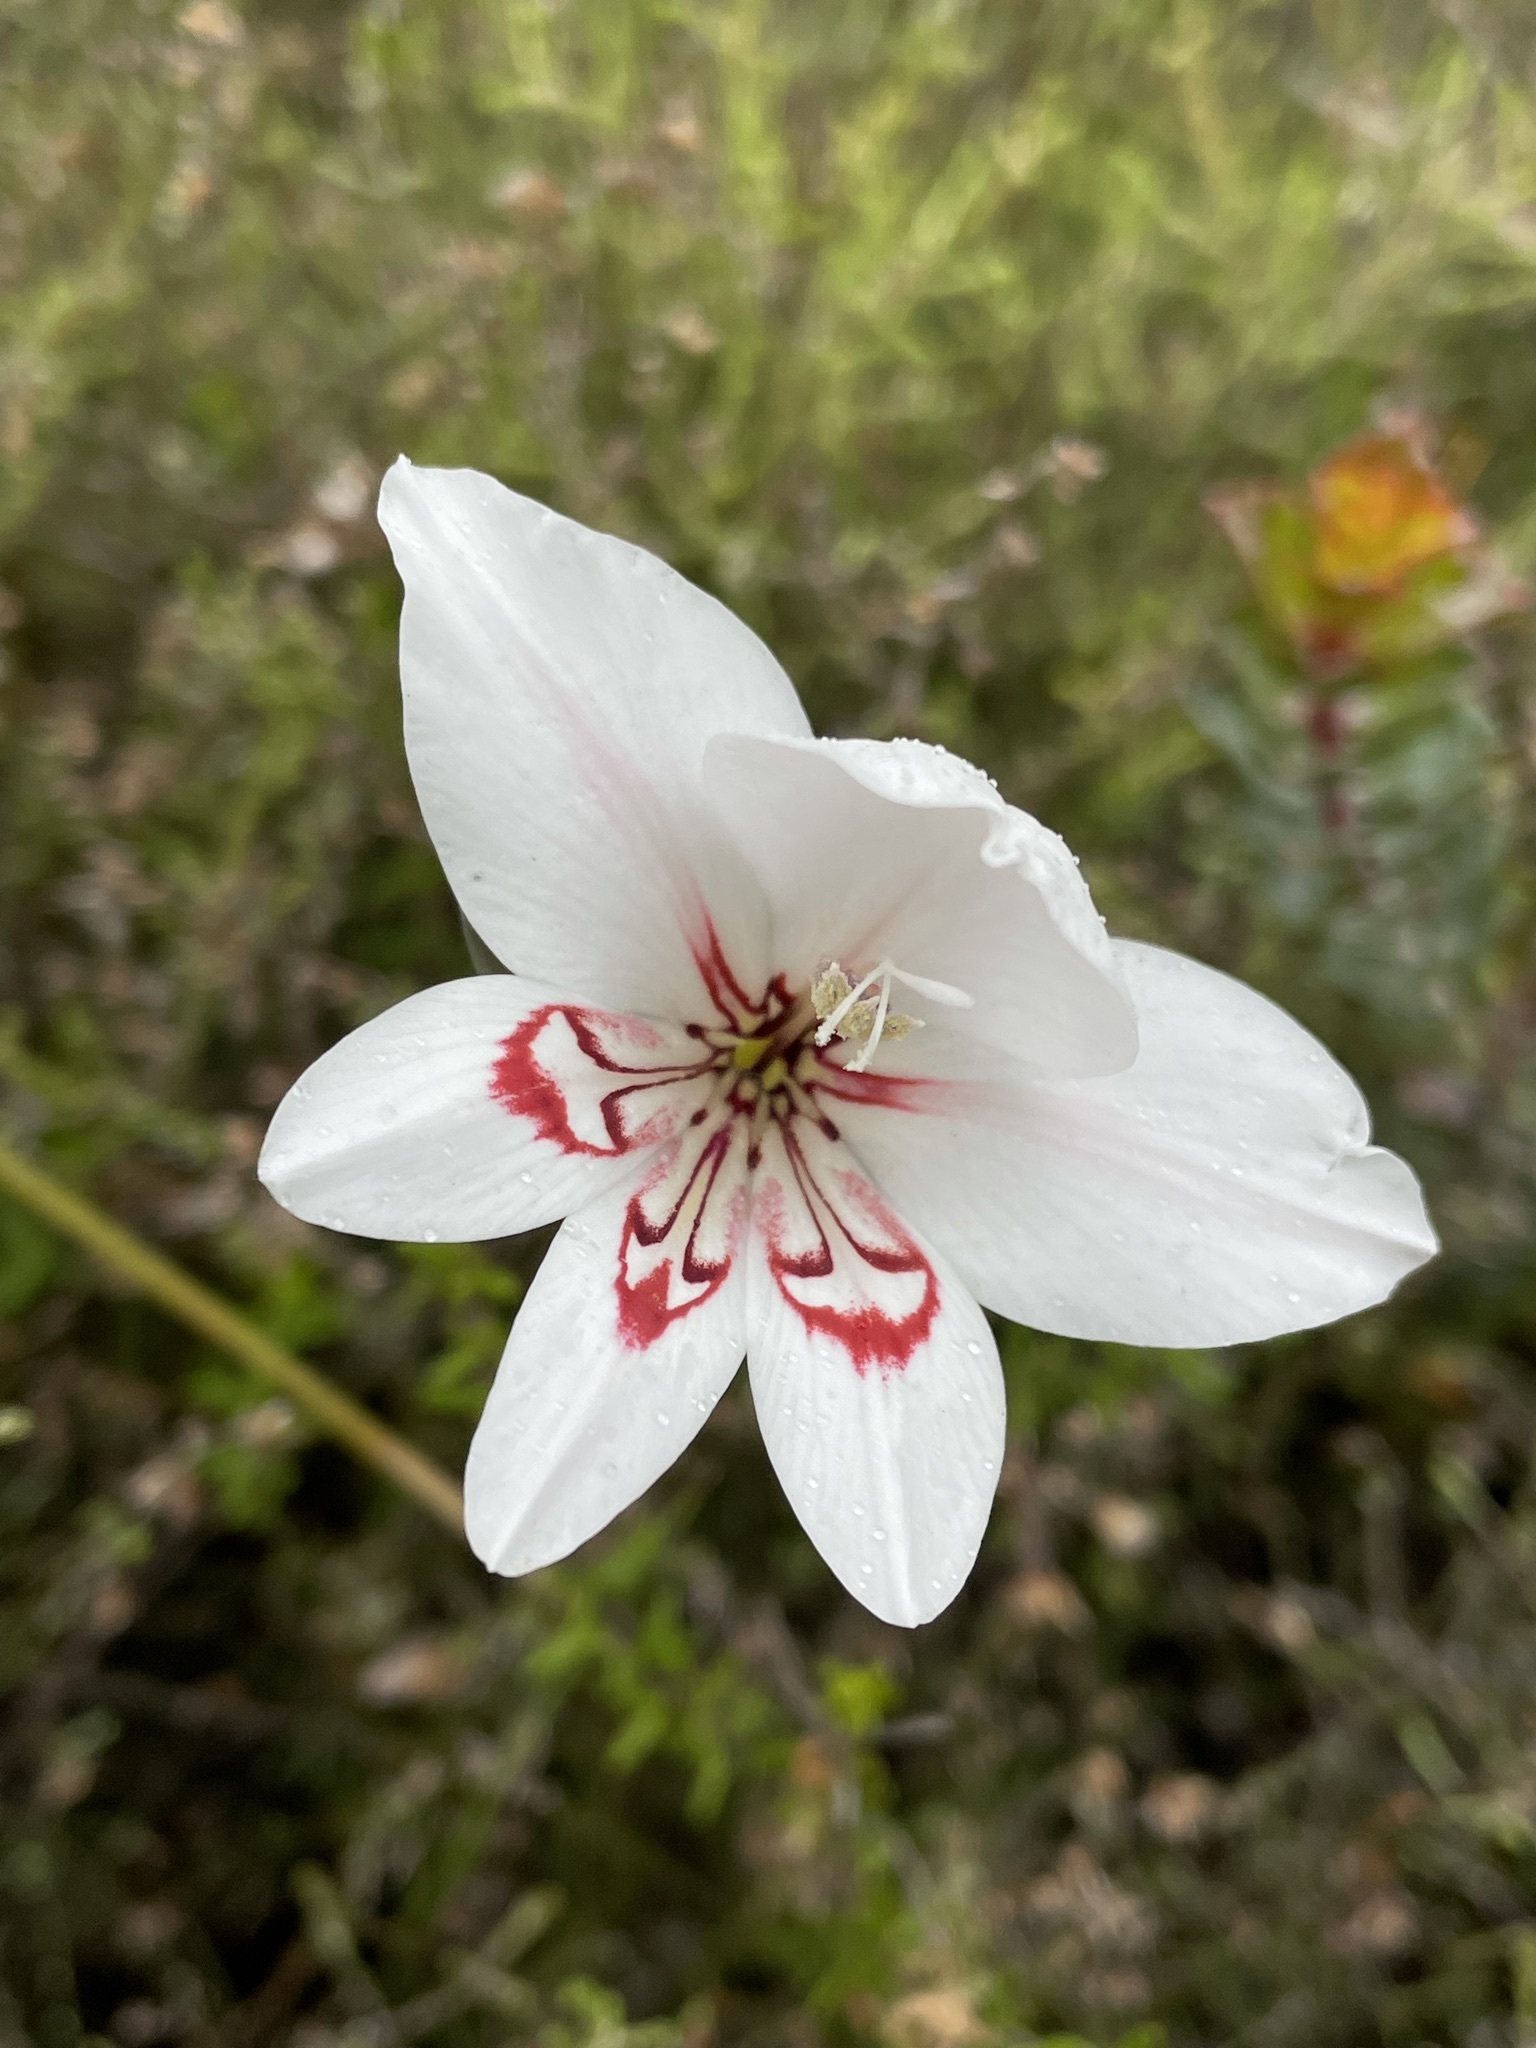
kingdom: Plantae
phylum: Tracheophyta
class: Liliopsida
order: Asparagales
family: Iridaceae
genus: Gladiolus
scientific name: Gladiolus debilis
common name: Painted-lady
